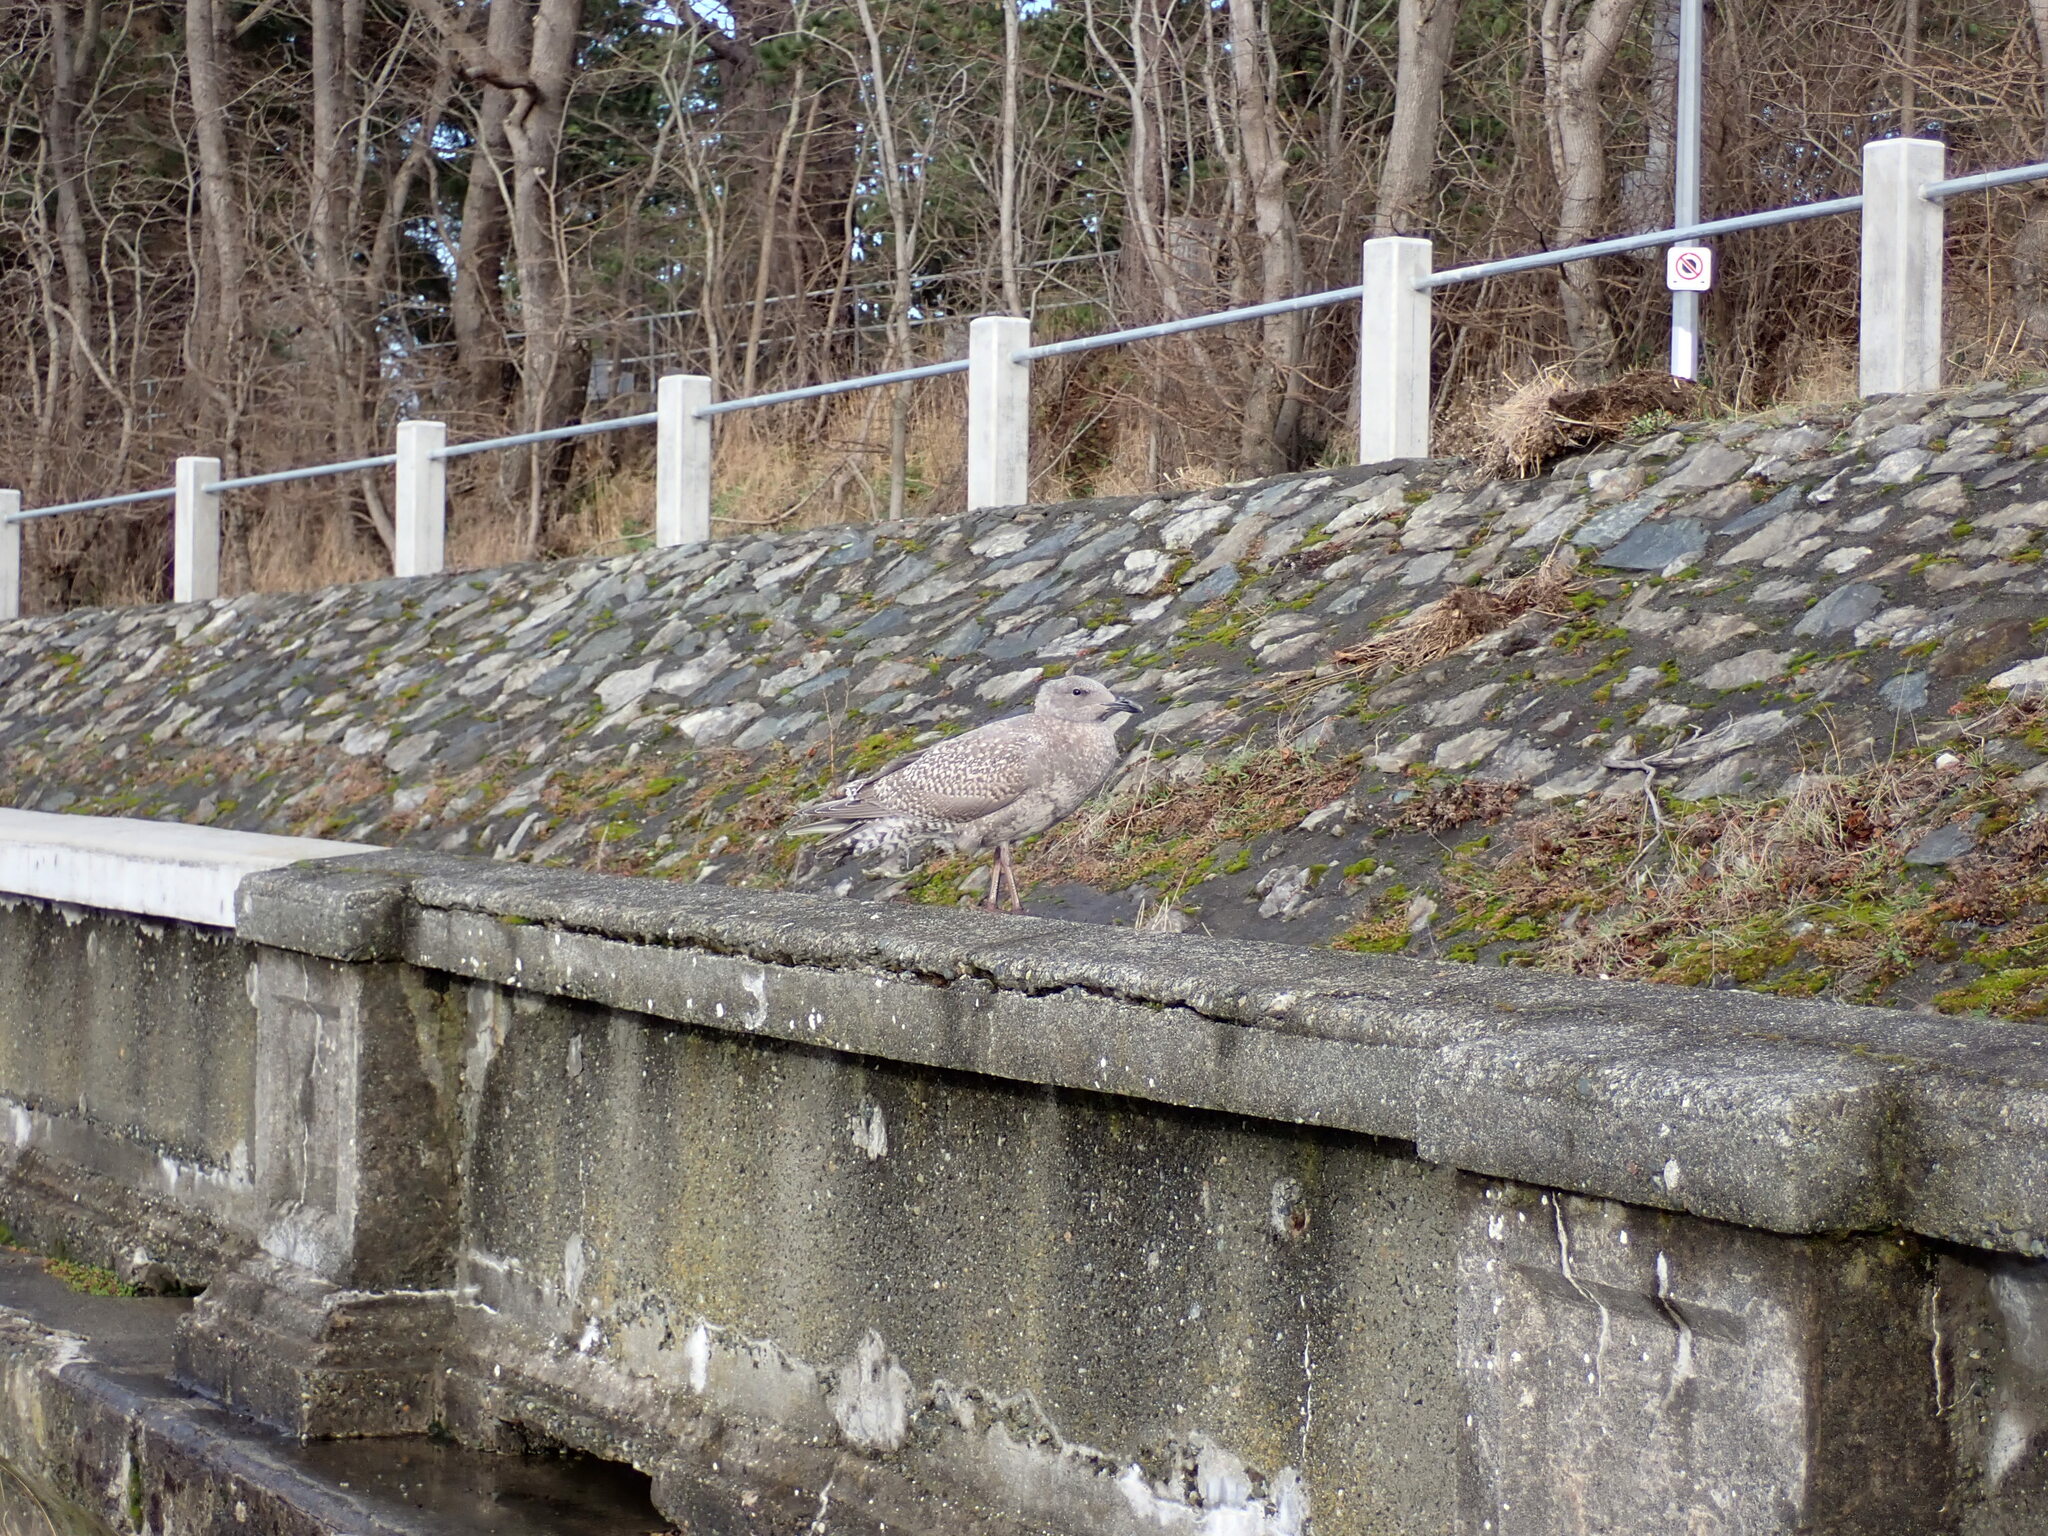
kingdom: Animalia
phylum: Chordata
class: Aves
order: Charadriiformes
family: Laridae
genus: Larus
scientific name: Larus glaucescens
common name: Glaucous-winged gull
